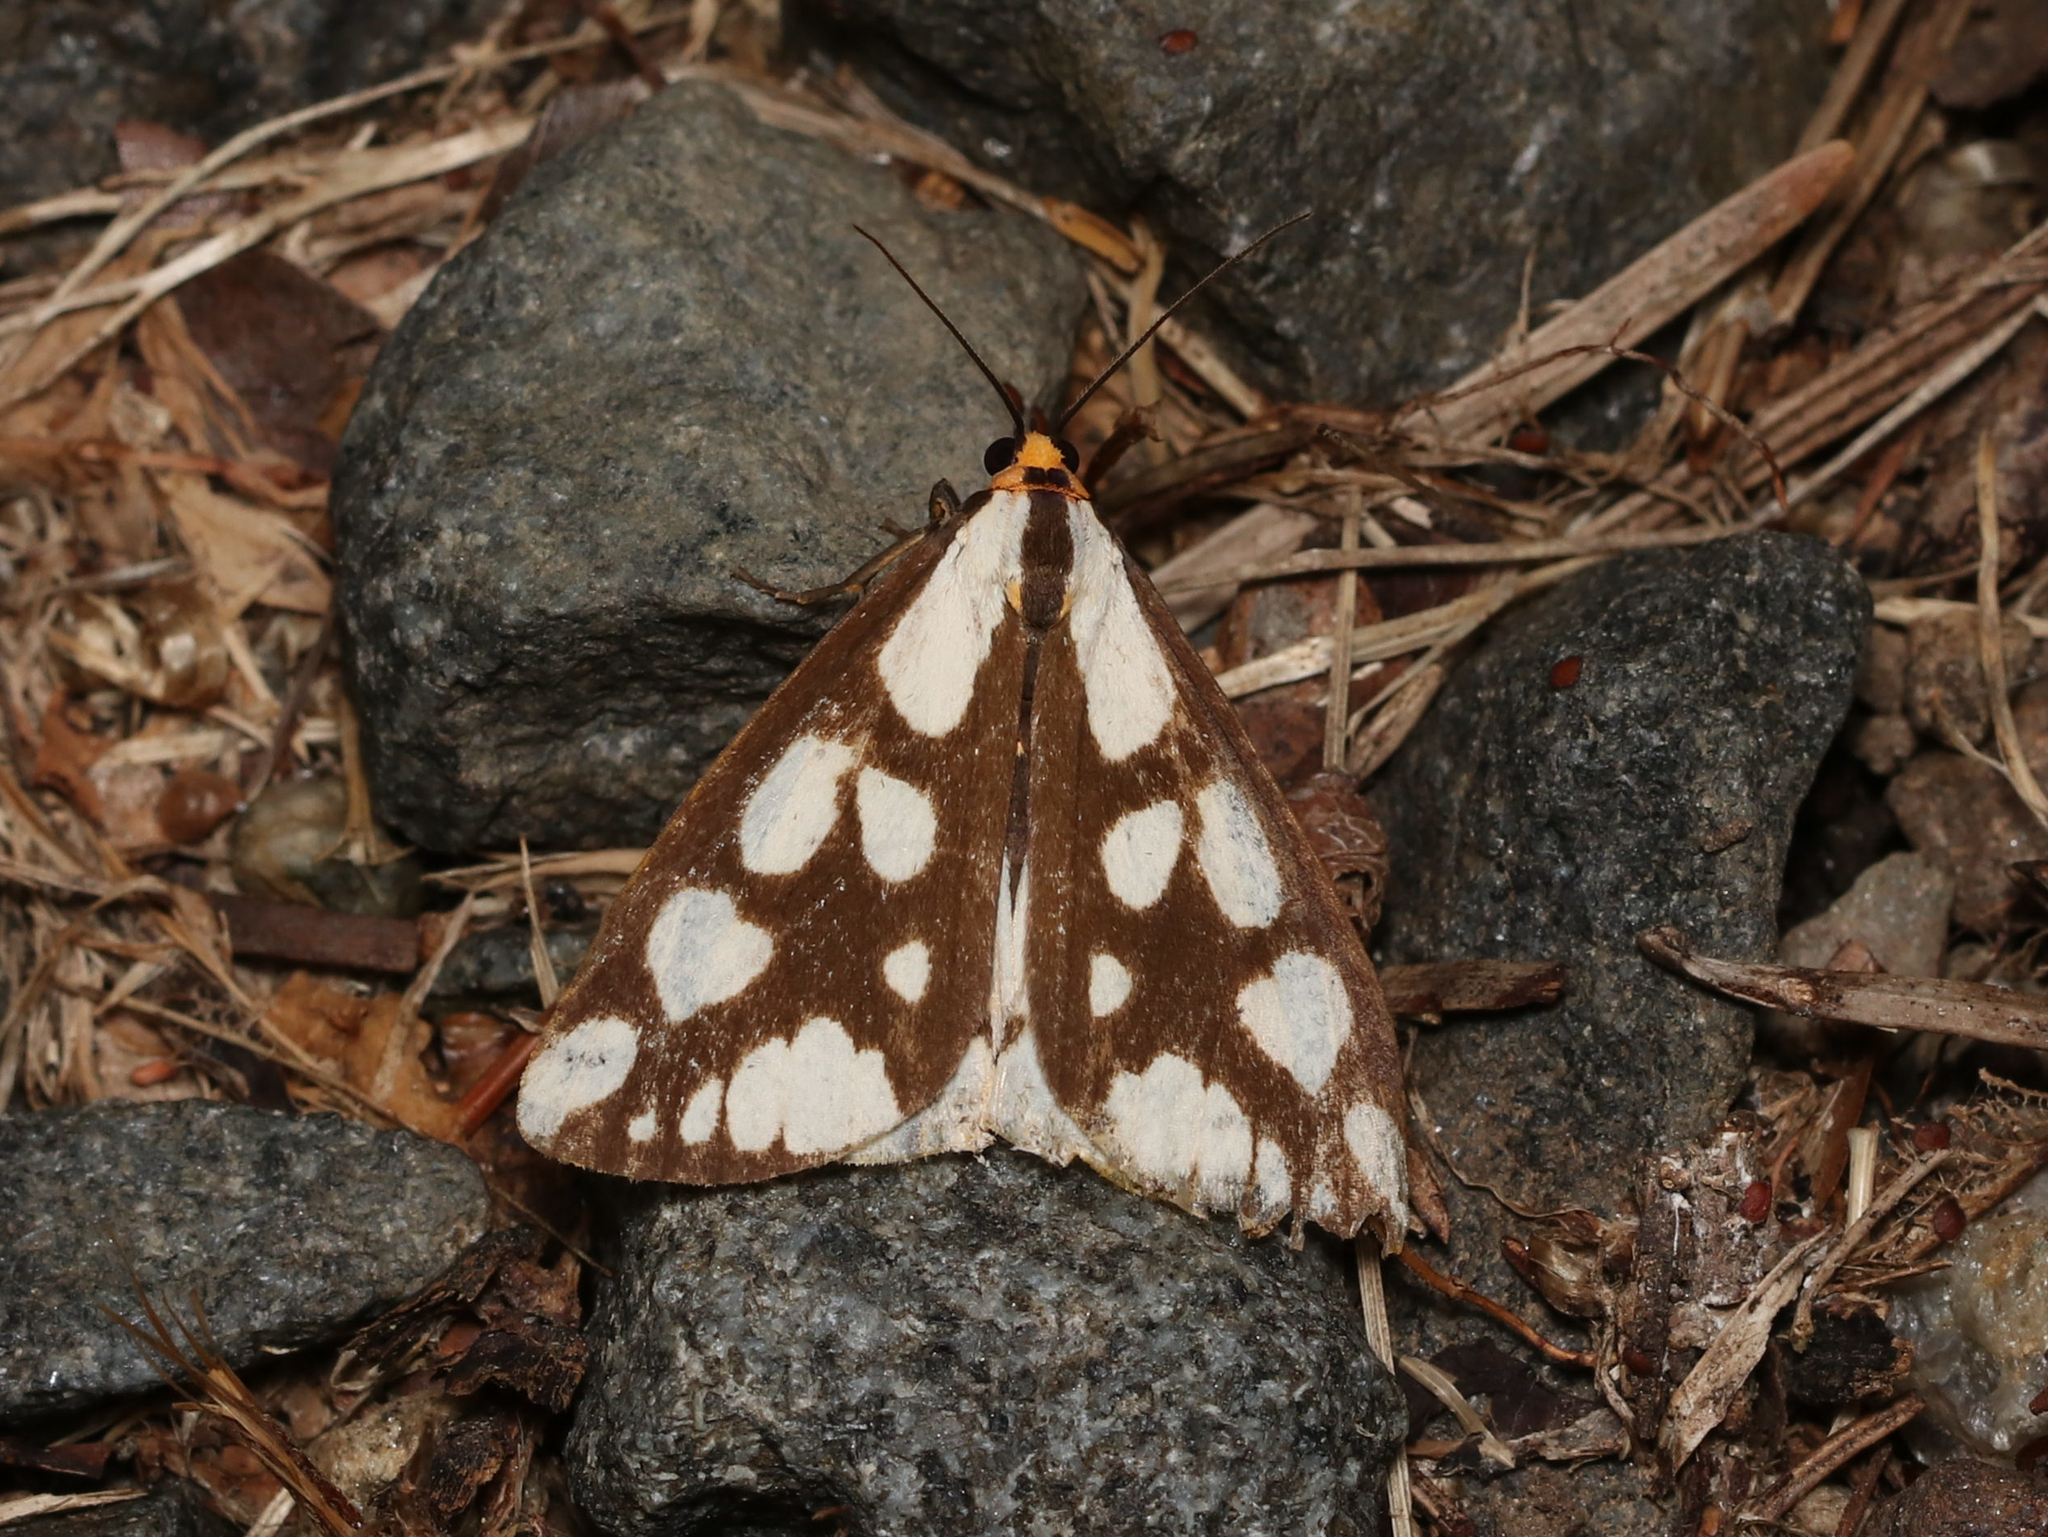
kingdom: Animalia
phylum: Arthropoda
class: Insecta
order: Lepidoptera
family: Erebidae
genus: Haploa
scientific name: Haploa confusa
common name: Confused haploa moth
